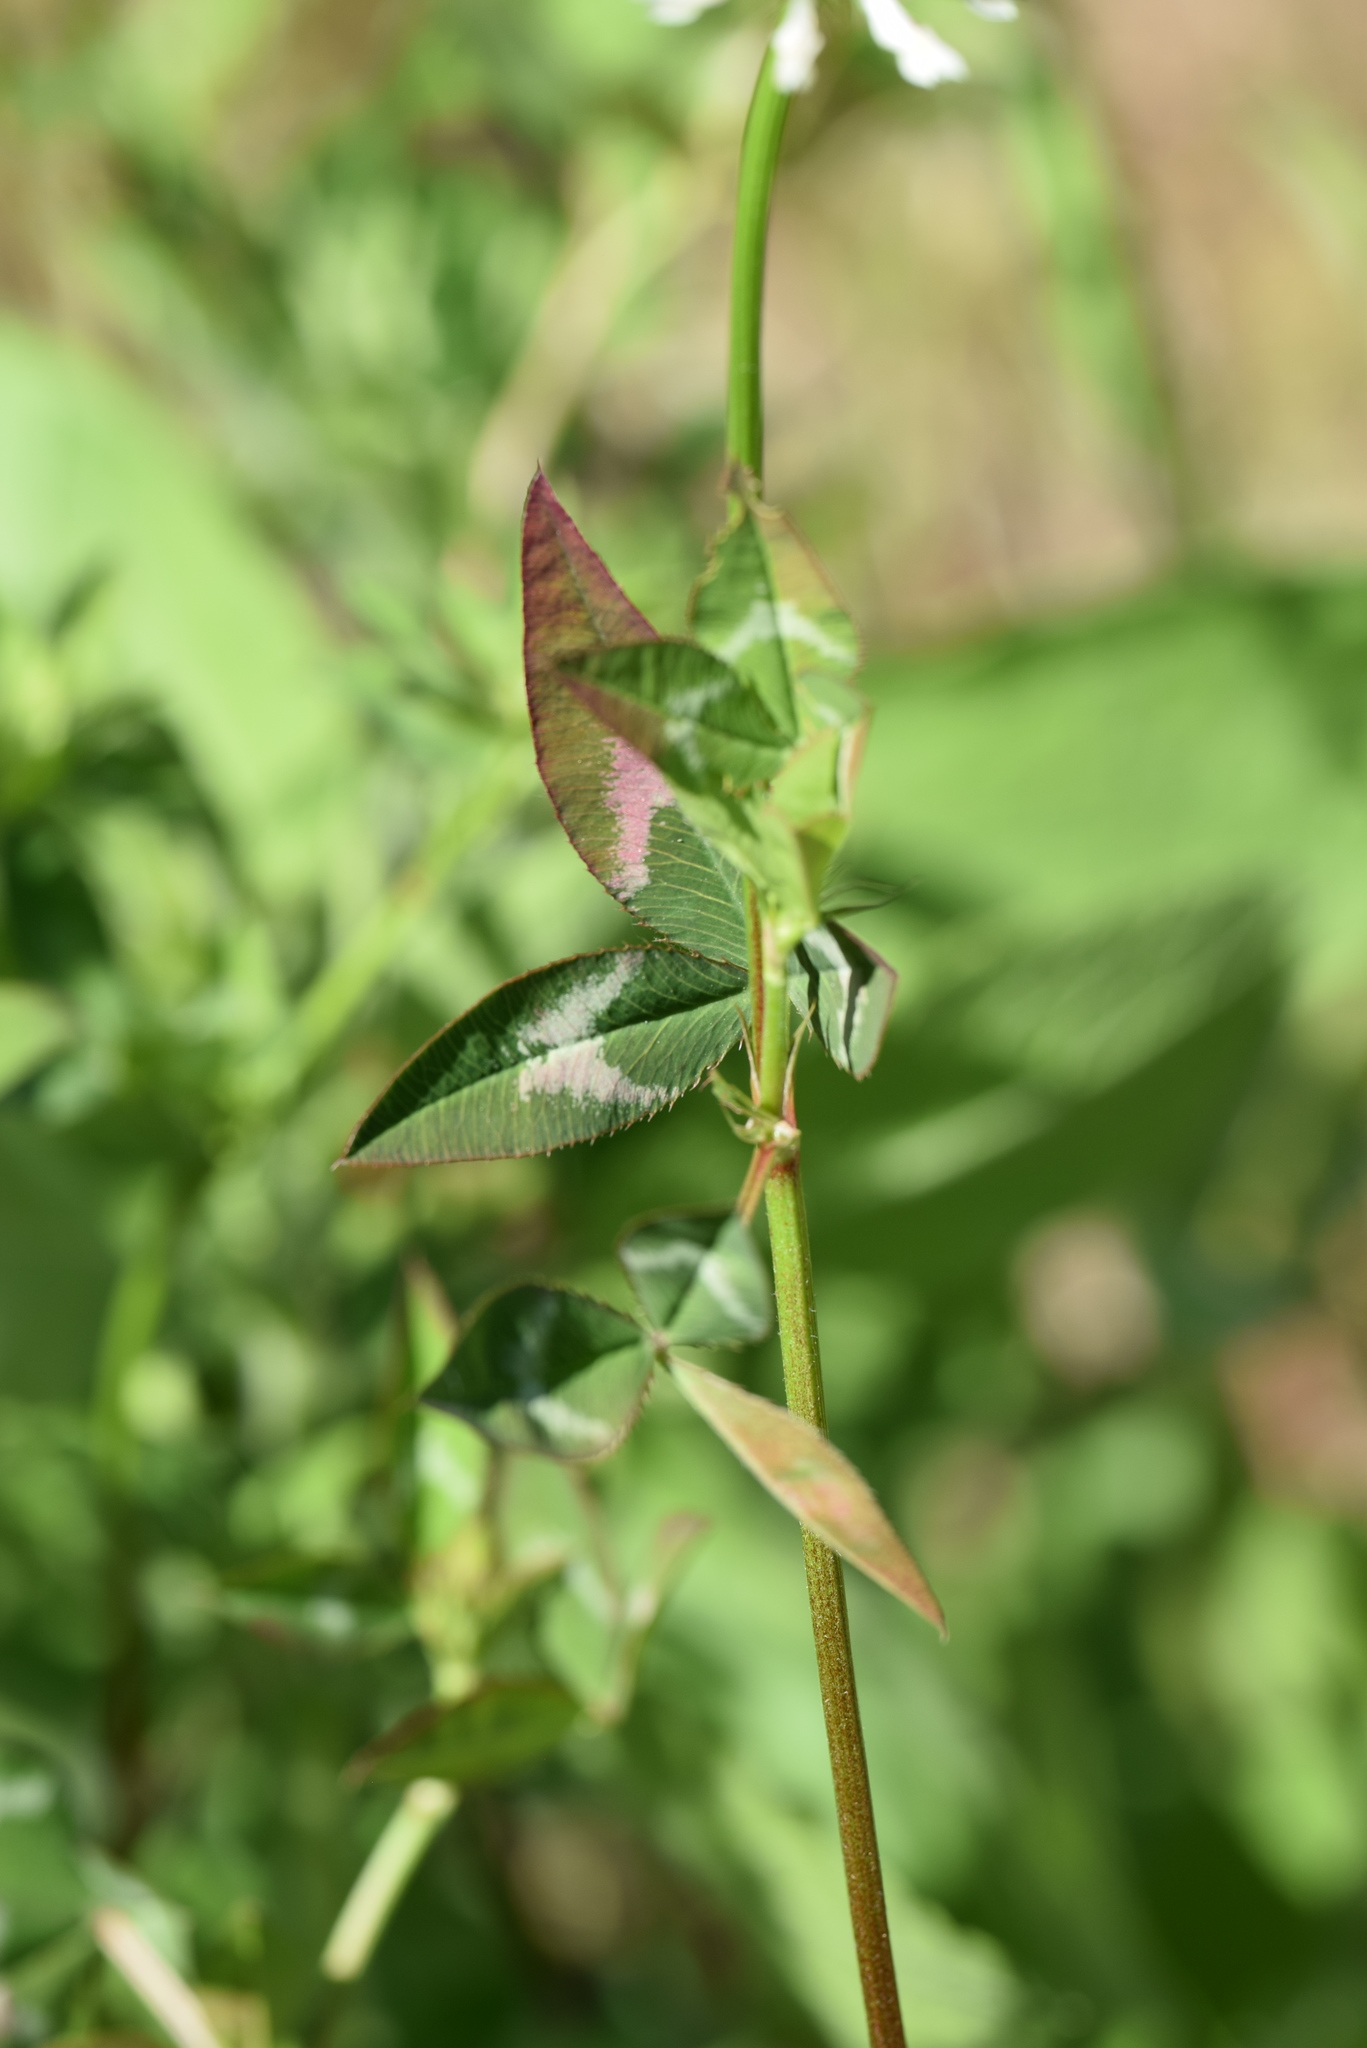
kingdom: Plantae
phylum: Tracheophyta
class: Magnoliopsida
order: Fabales
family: Fabaceae
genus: Trifolium
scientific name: Trifolium vesiculosum
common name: Arrowleaf clover
